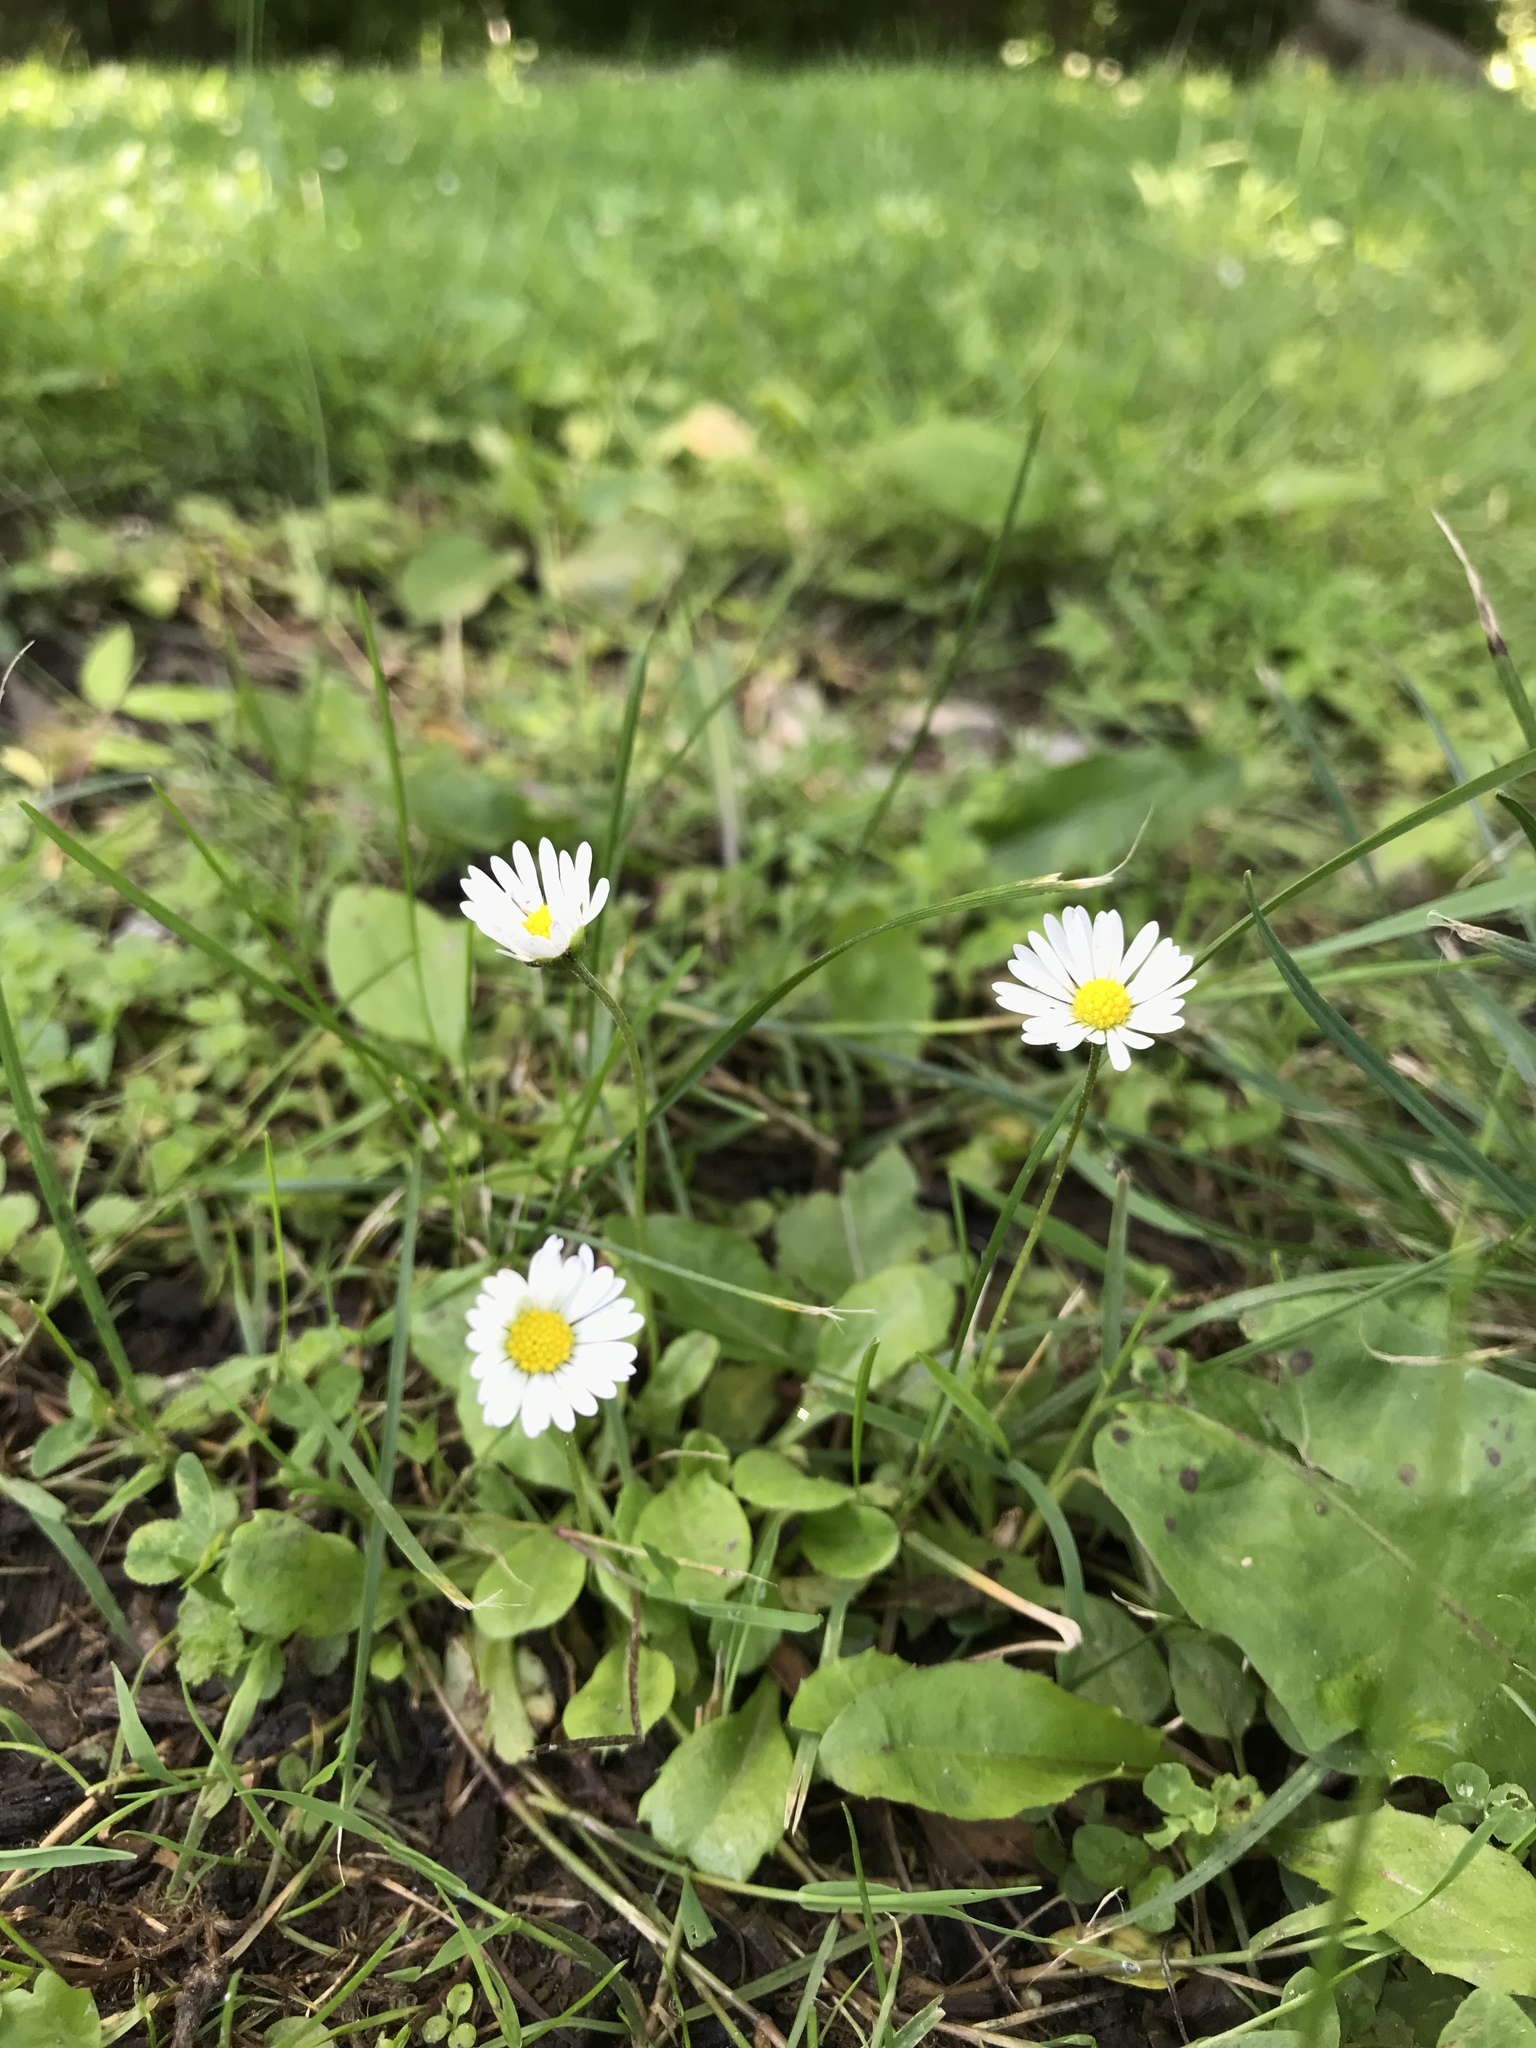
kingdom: Plantae
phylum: Tracheophyta
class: Magnoliopsida
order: Asterales
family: Asteraceae
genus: Bellis
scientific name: Bellis perennis
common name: Lawndaisy
